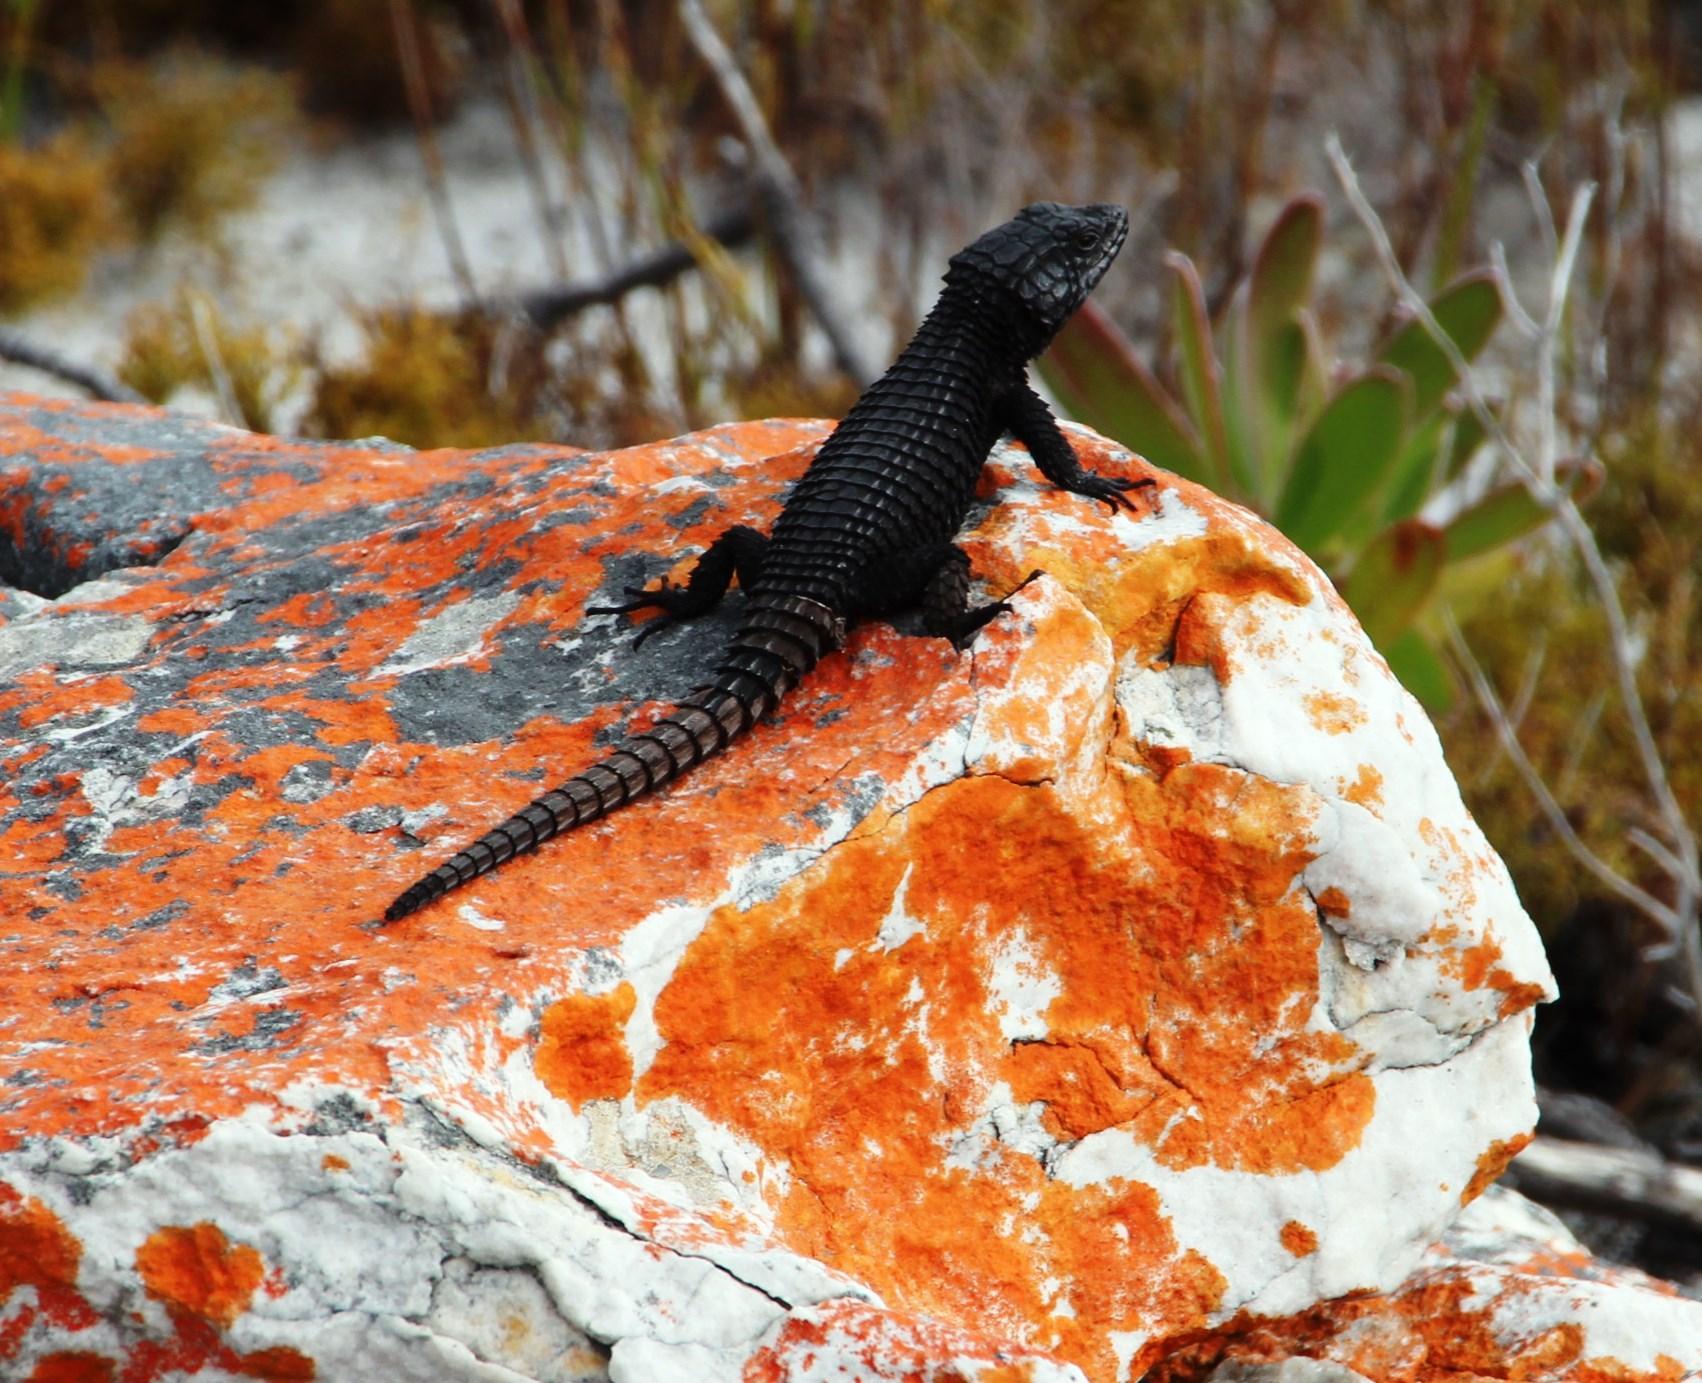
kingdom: Animalia
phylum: Chordata
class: Squamata
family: Cordylidae
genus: Cordylus
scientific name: Cordylus niger
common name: Black girdled lizard
